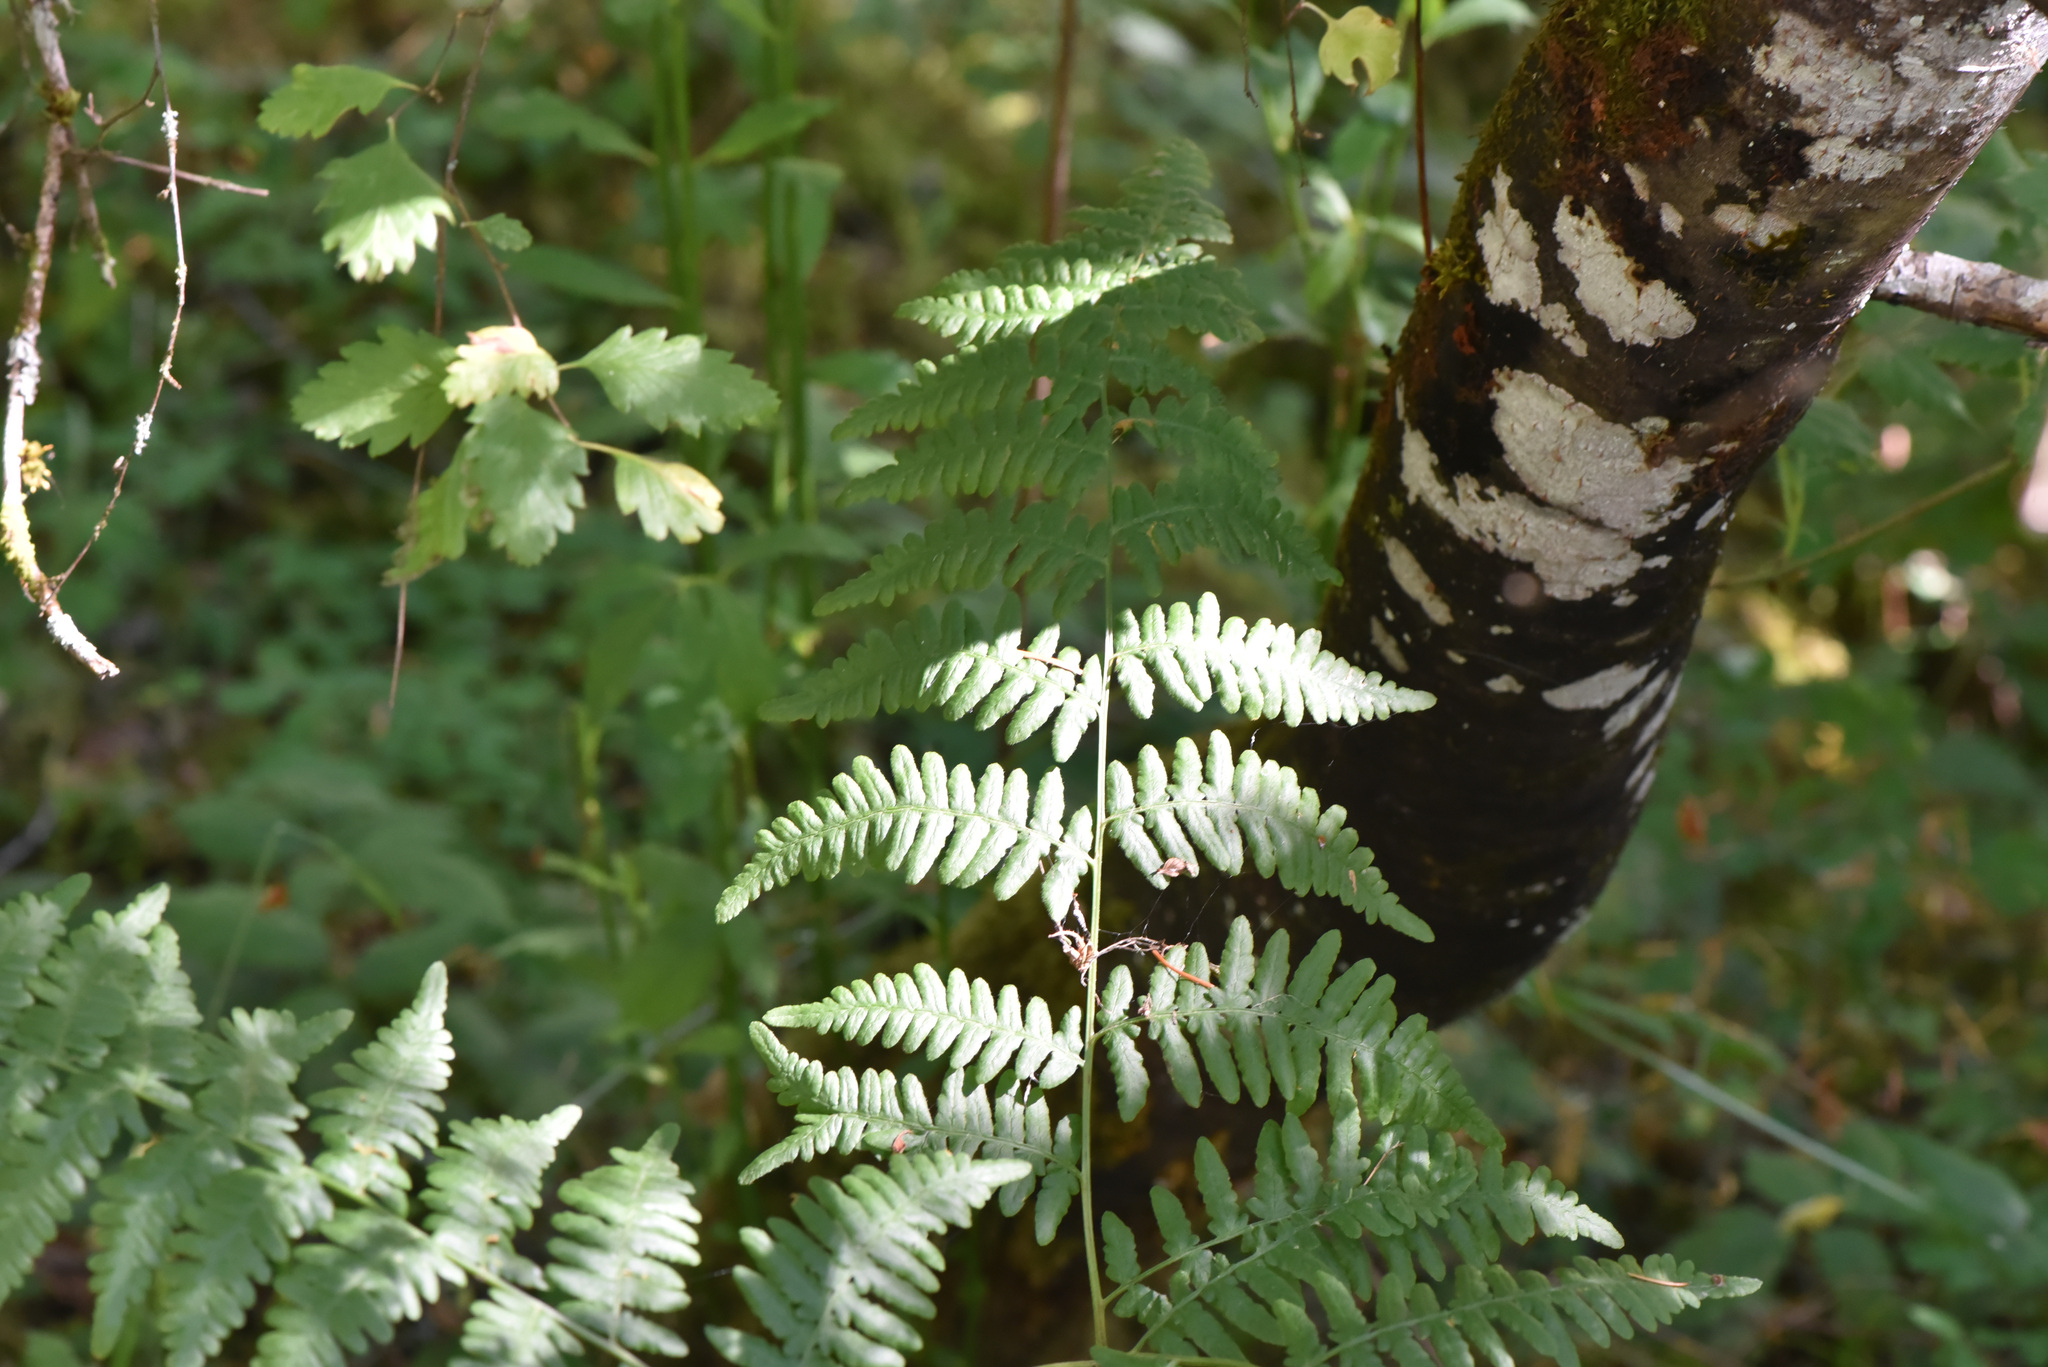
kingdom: Plantae
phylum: Tracheophyta
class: Polypodiopsida
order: Polypodiales
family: Dennstaedtiaceae
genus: Pteridium
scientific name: Pteridium aquilinum
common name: Bracken
